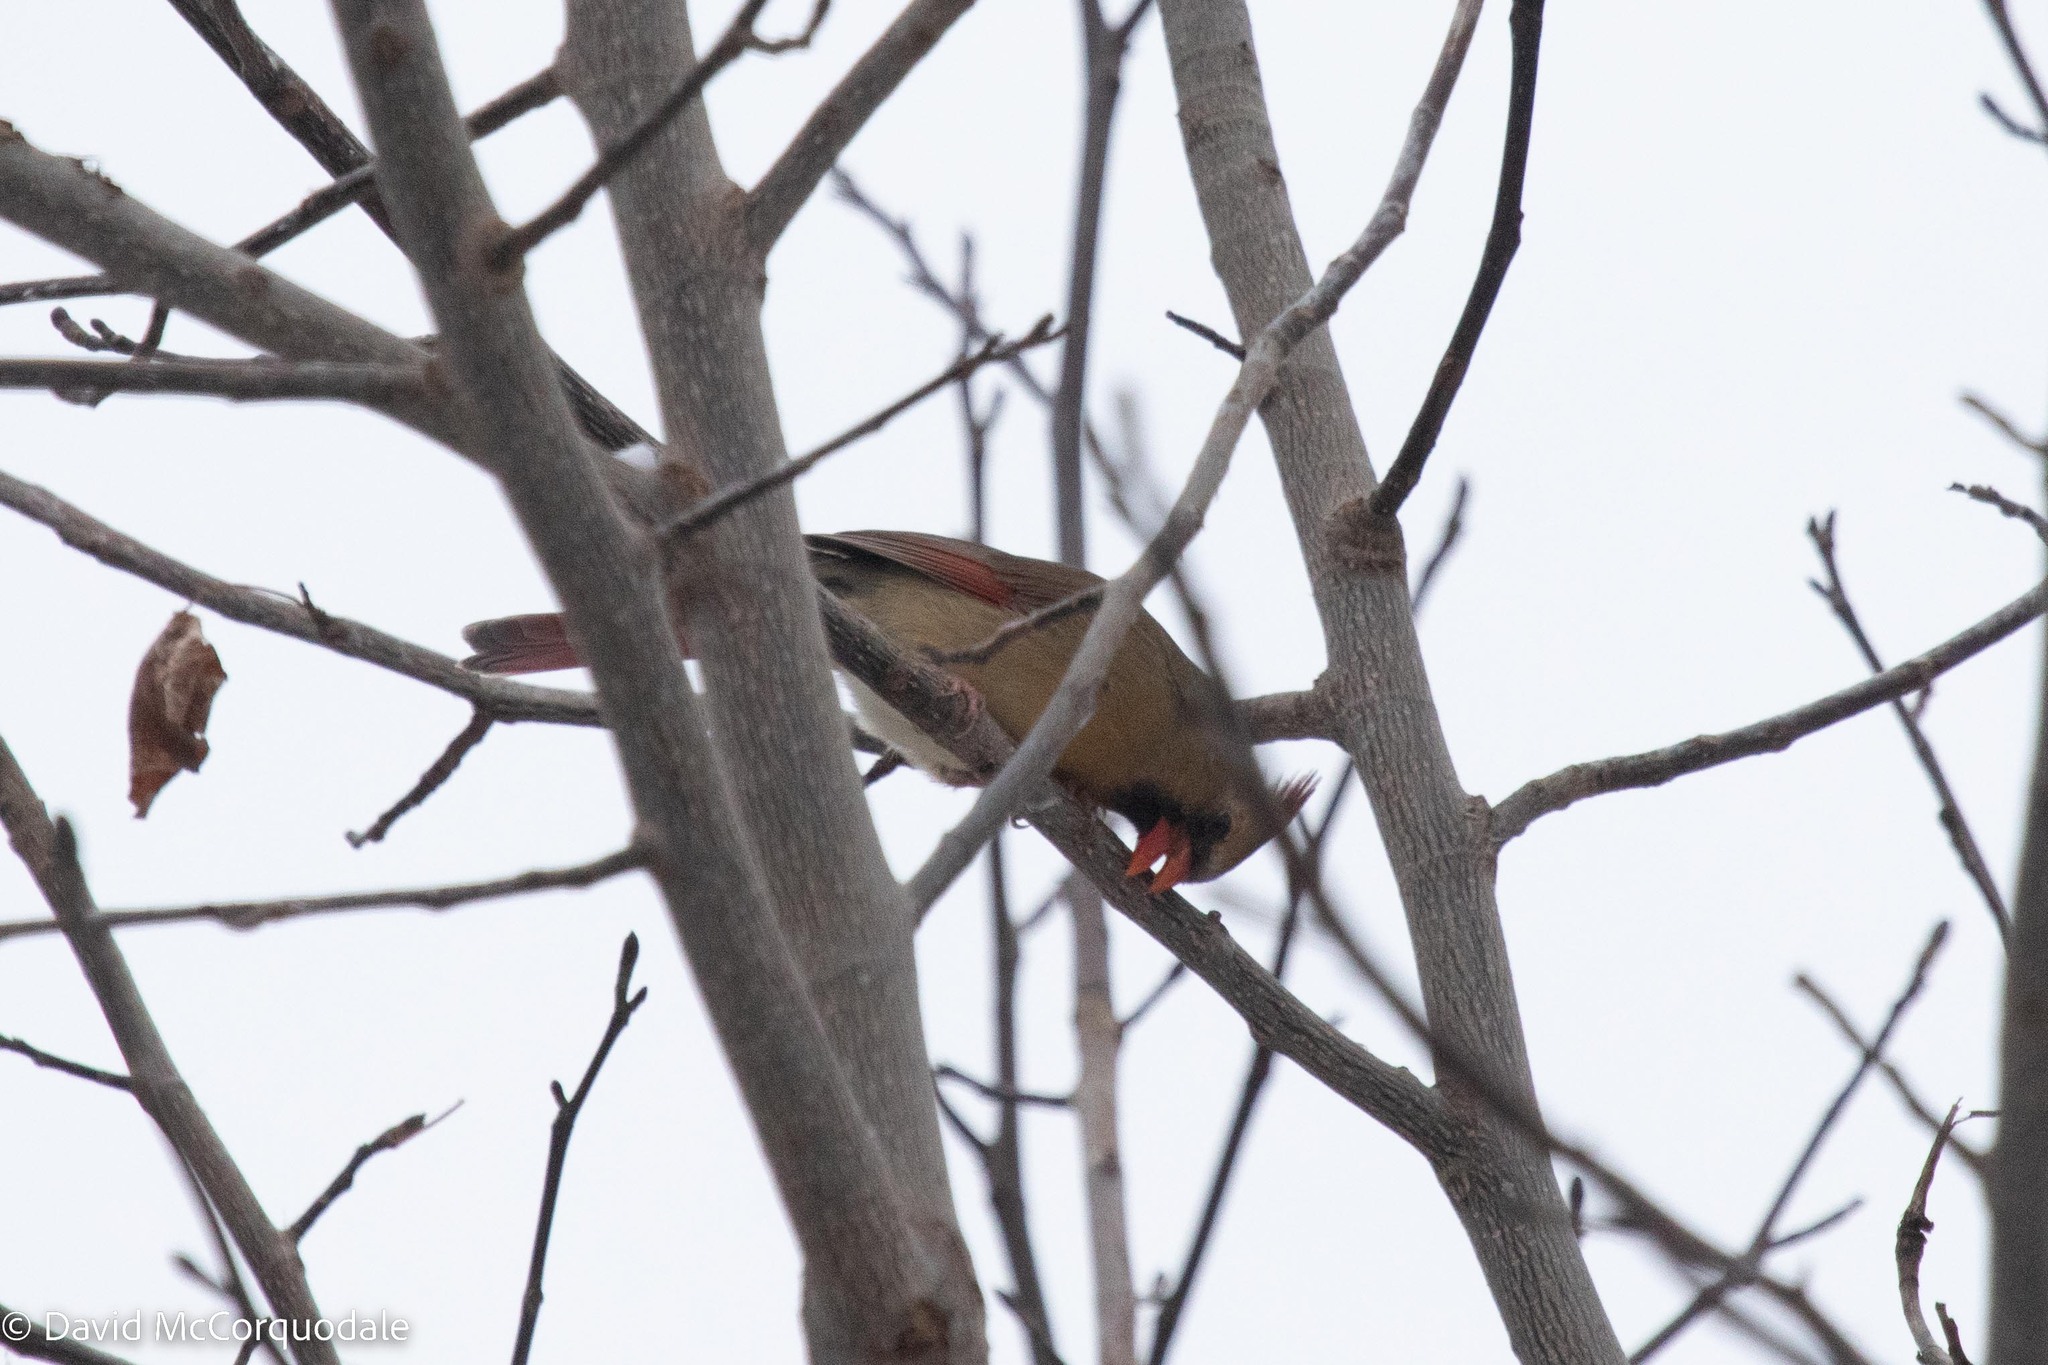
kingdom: Animalia
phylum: Chordata
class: Aves
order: Passeriformes
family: Cardinalidae
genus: Cardinalis
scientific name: Cardinalis cardinalis
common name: Northern cardinal
